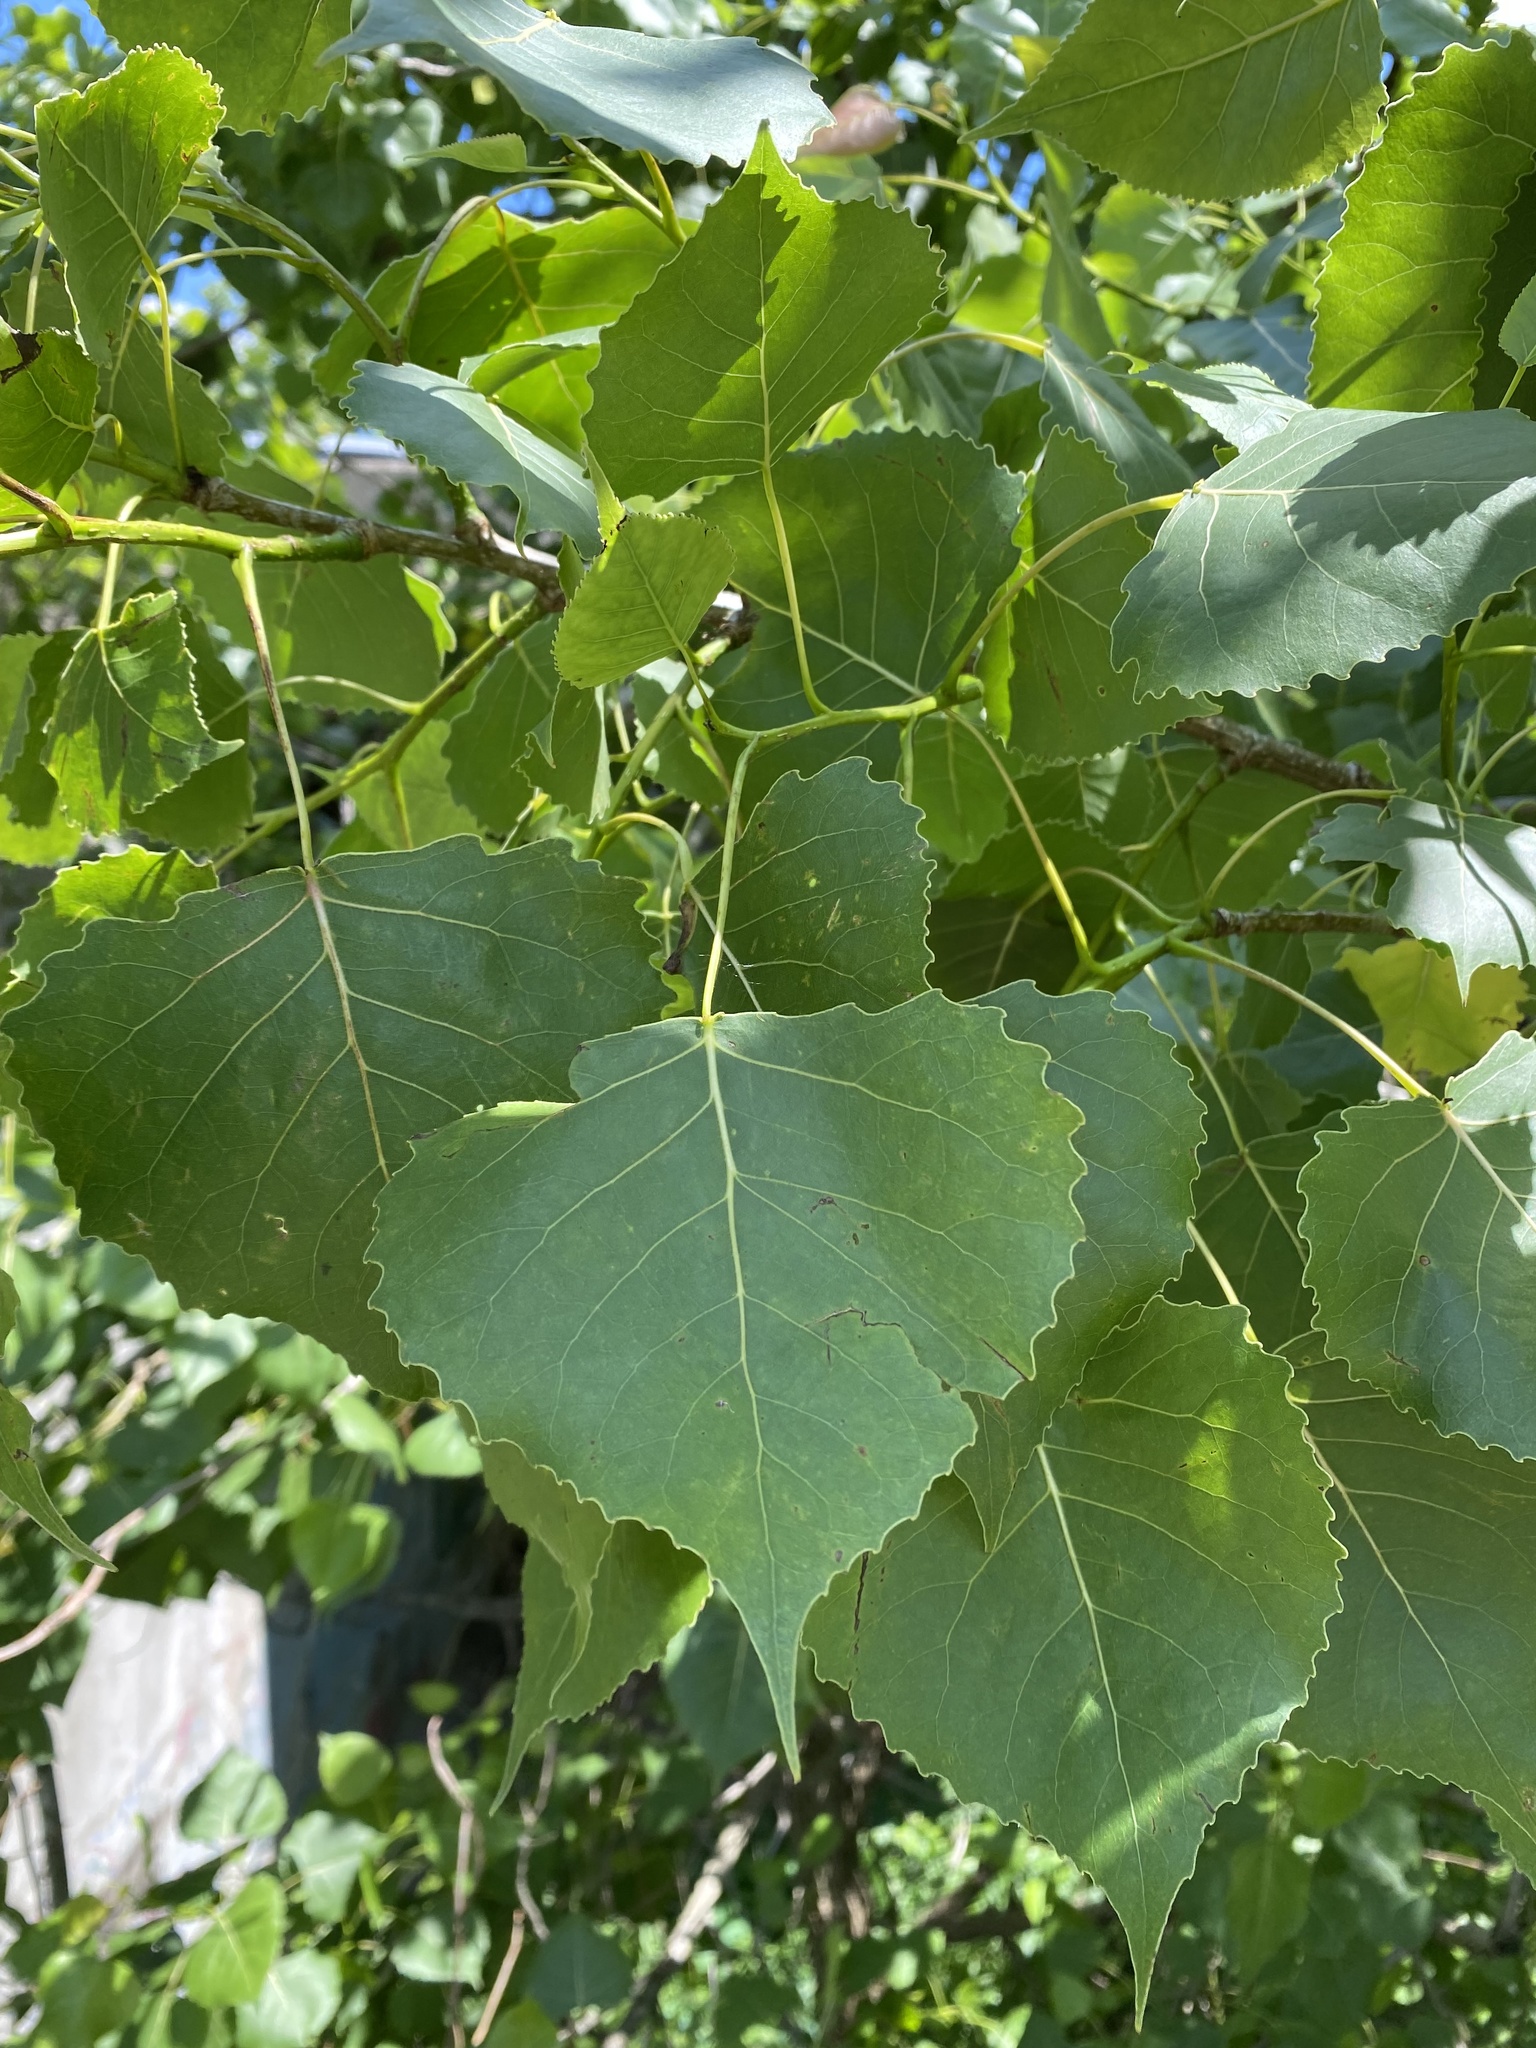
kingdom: Plantae
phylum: Tracheophyta
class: Magnoliopsida
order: Malpighiales
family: Salicaceae
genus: Populus
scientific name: Populus deltoides
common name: Eastern cottonwood
